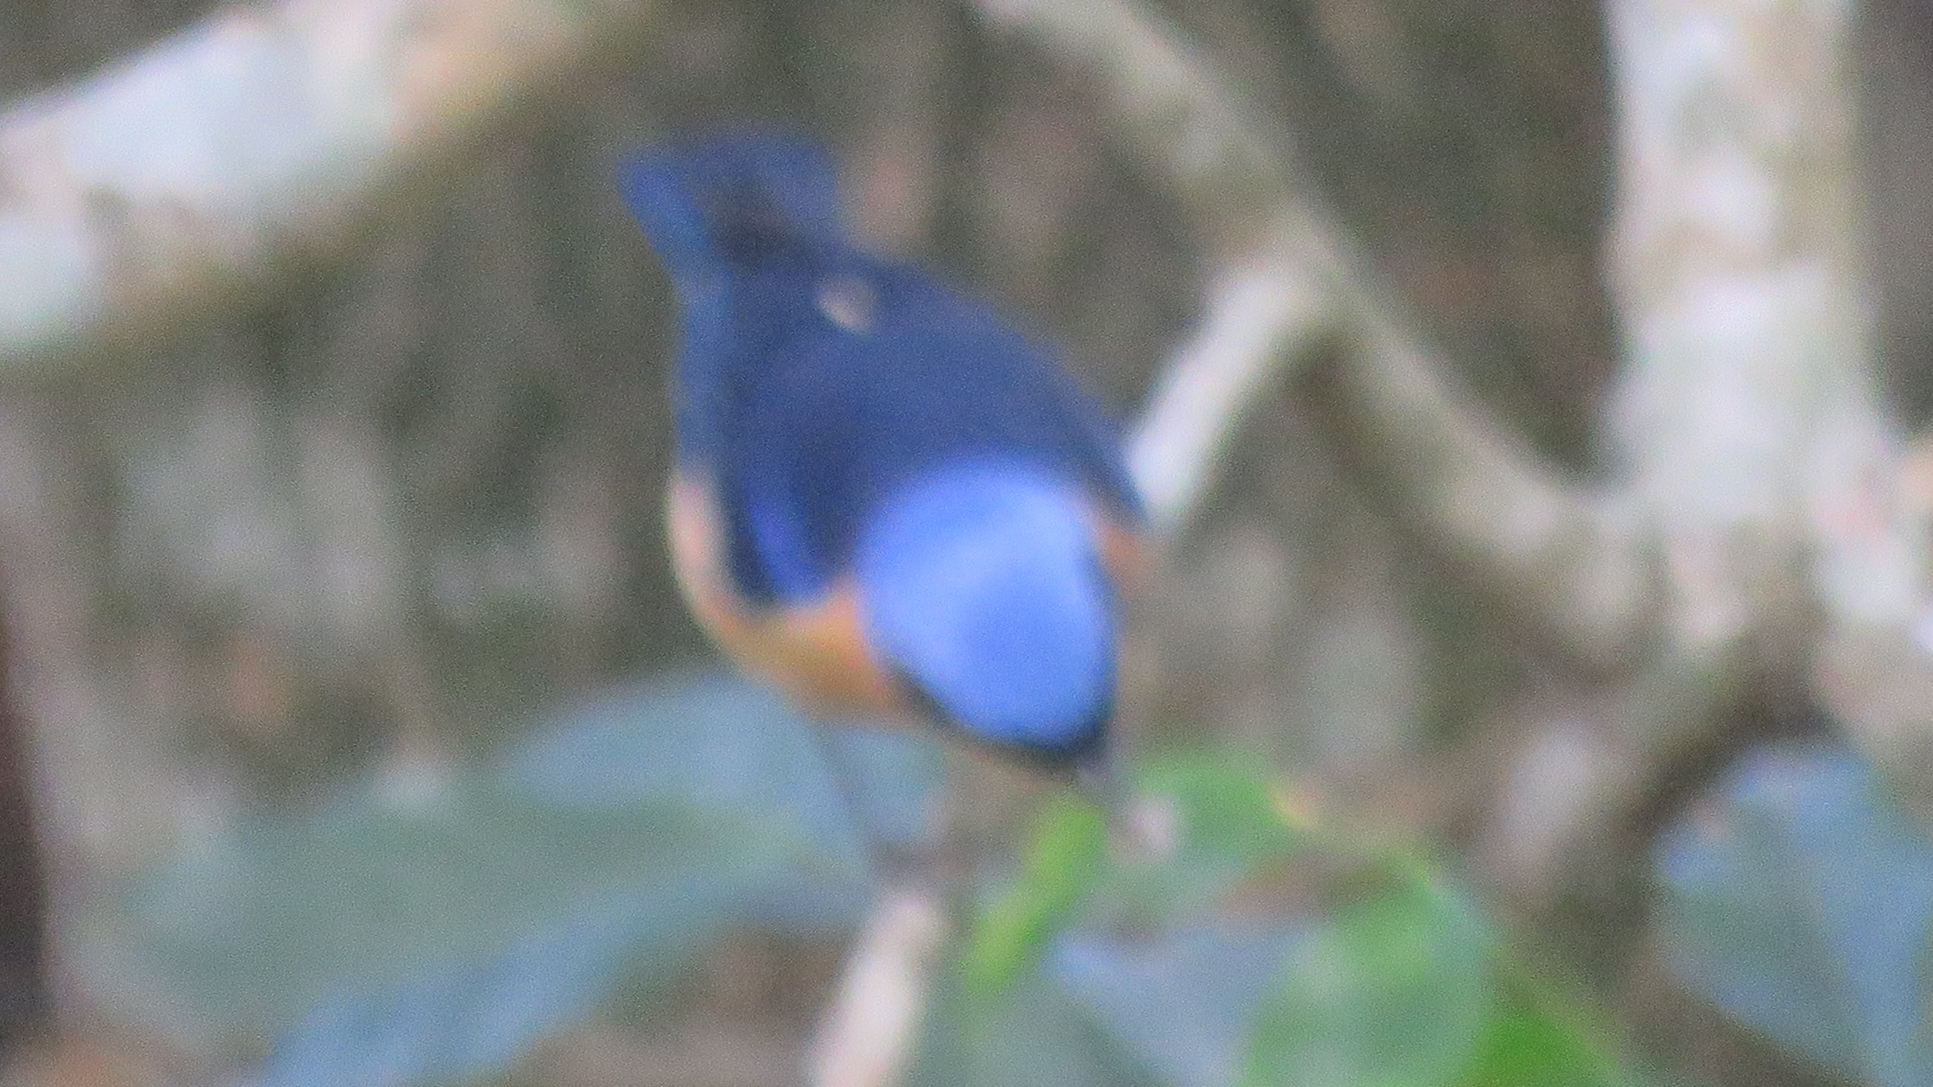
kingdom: Animalia
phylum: Chordata
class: Aves
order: Passeriformes
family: Thraupidae
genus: Pipraeidea
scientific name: Pipraeidea melanonota
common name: Fawn-breasted tanager
